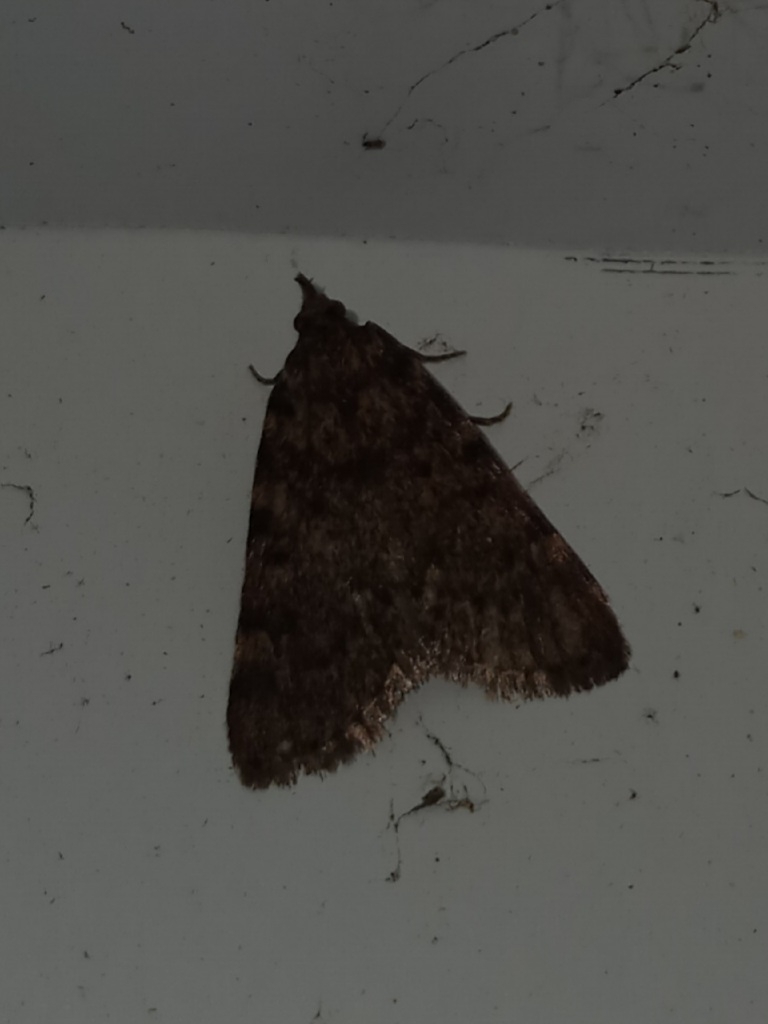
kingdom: Animalia
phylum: Arthropoda
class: Insecta
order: Lepidoptera
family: Pyralidae
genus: Aglossa
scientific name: Aglossa pinguinalis
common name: Large tabby
